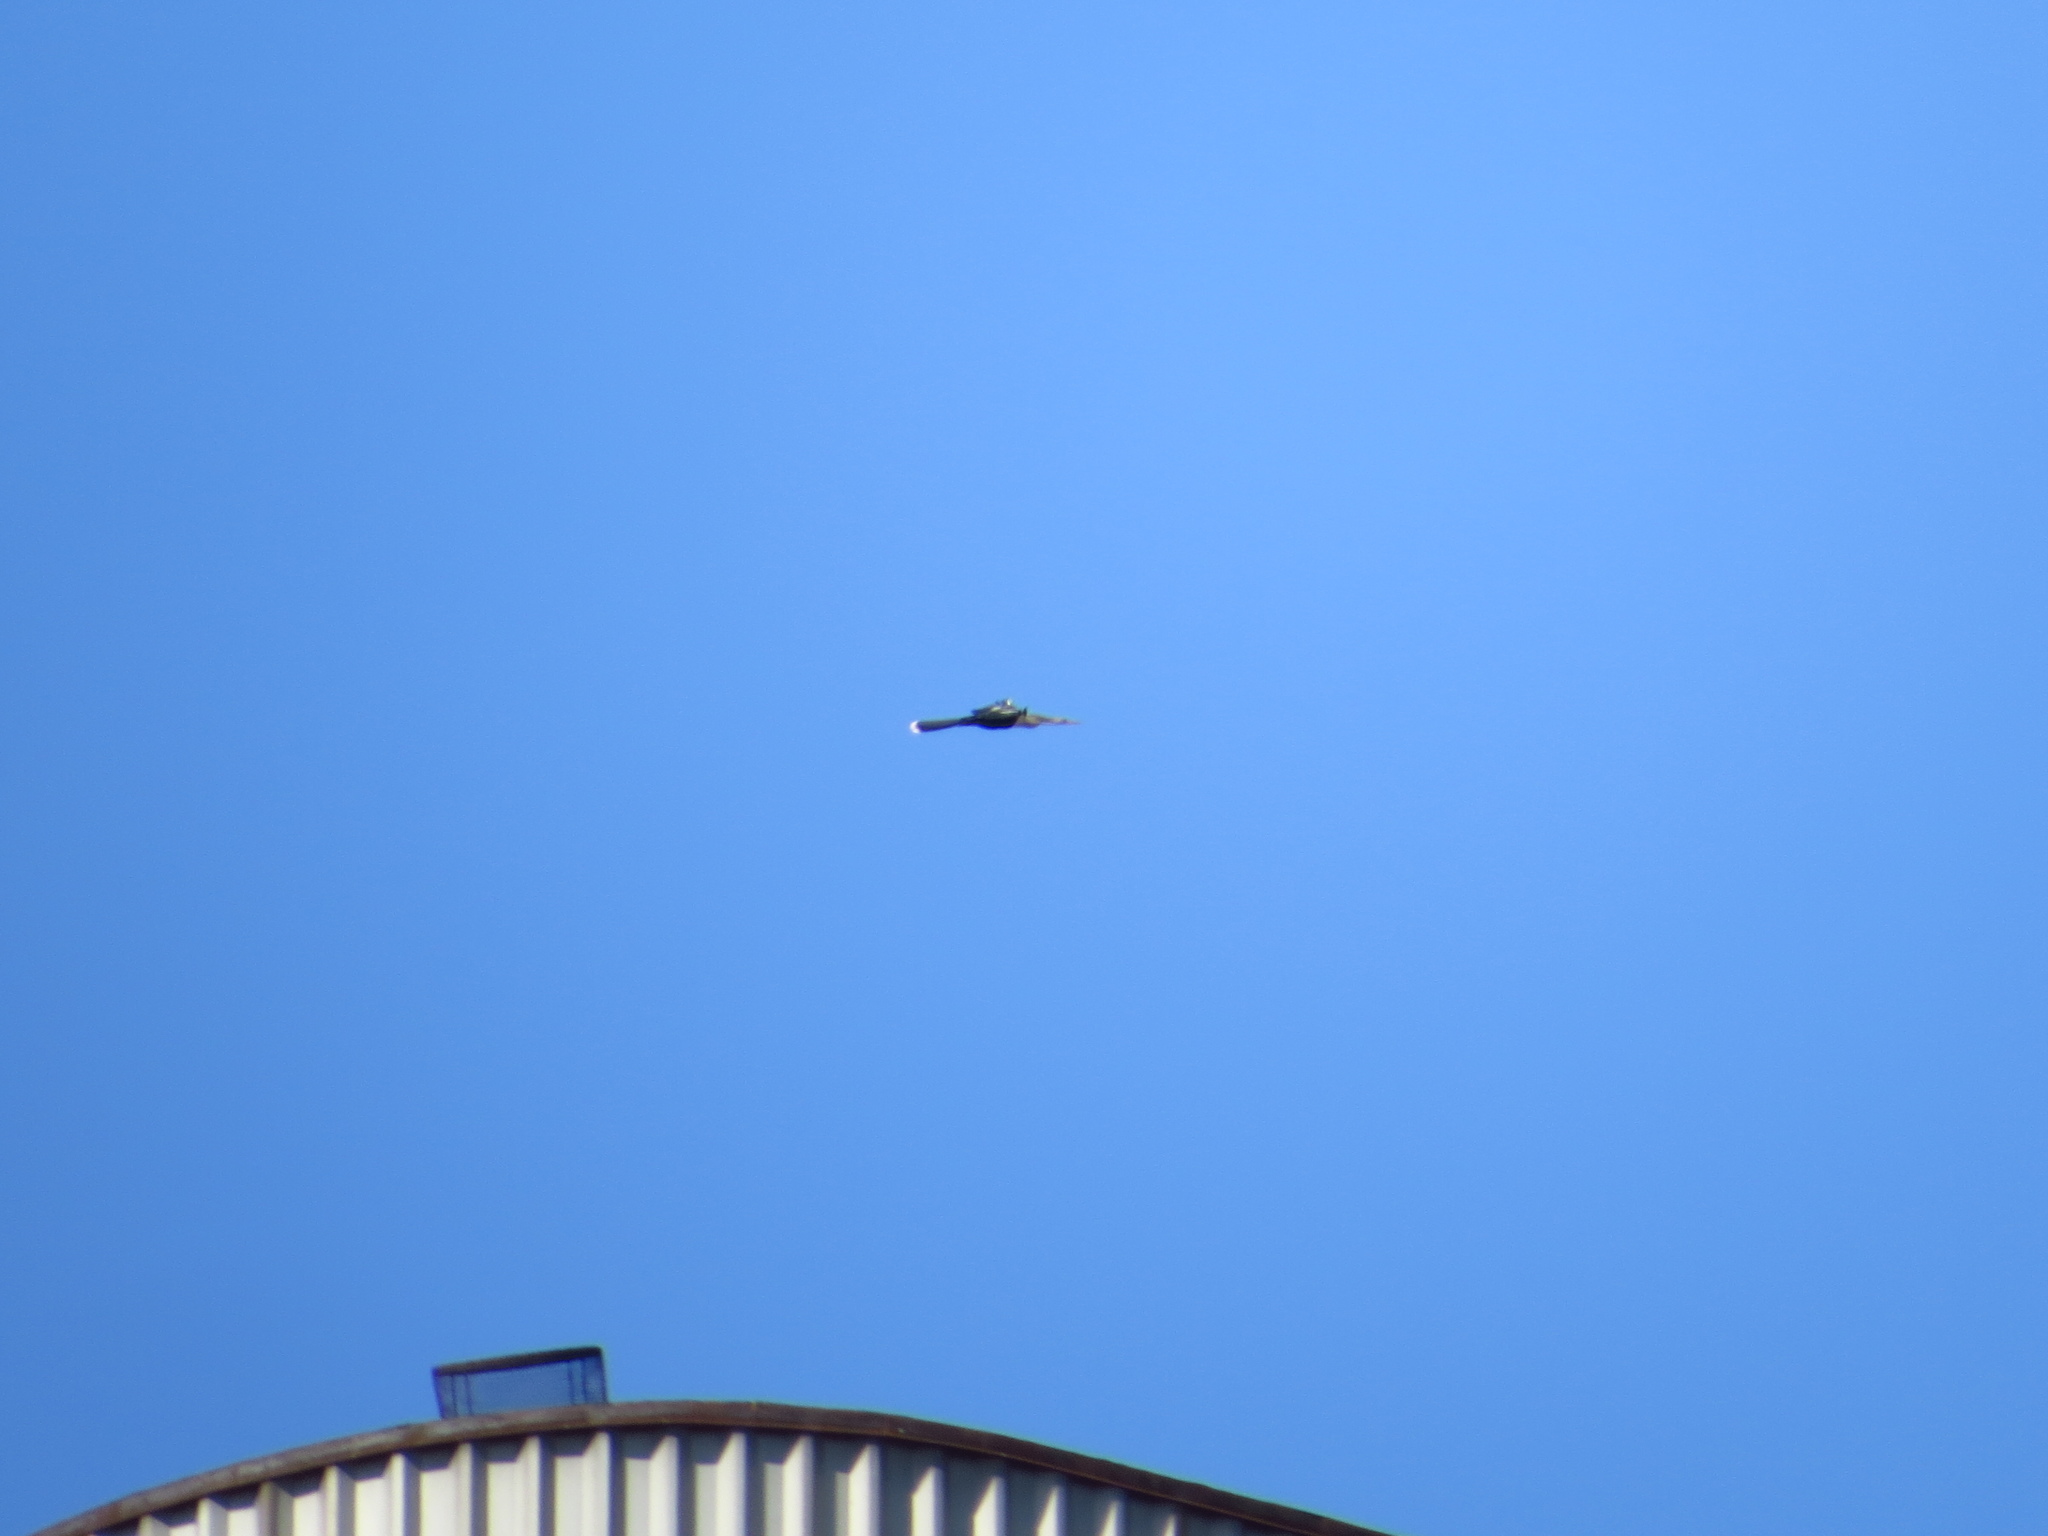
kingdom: Animalia
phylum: Chordata
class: Aves
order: Suliformes
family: Anhingidae
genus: Anhinga
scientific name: Anhinga anhinga
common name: Anhinga
